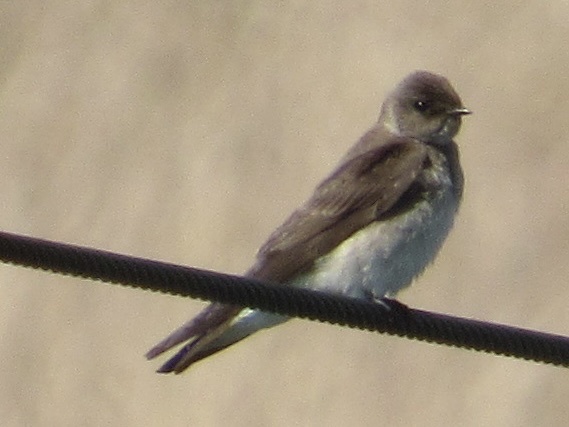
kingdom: Animalia
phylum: Chordata
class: Aves
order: Passeriformes
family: Hirundinidae
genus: Stelgidopteryx
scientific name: Stelgidopteryx serripennis
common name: Northern rough-winged swallow
